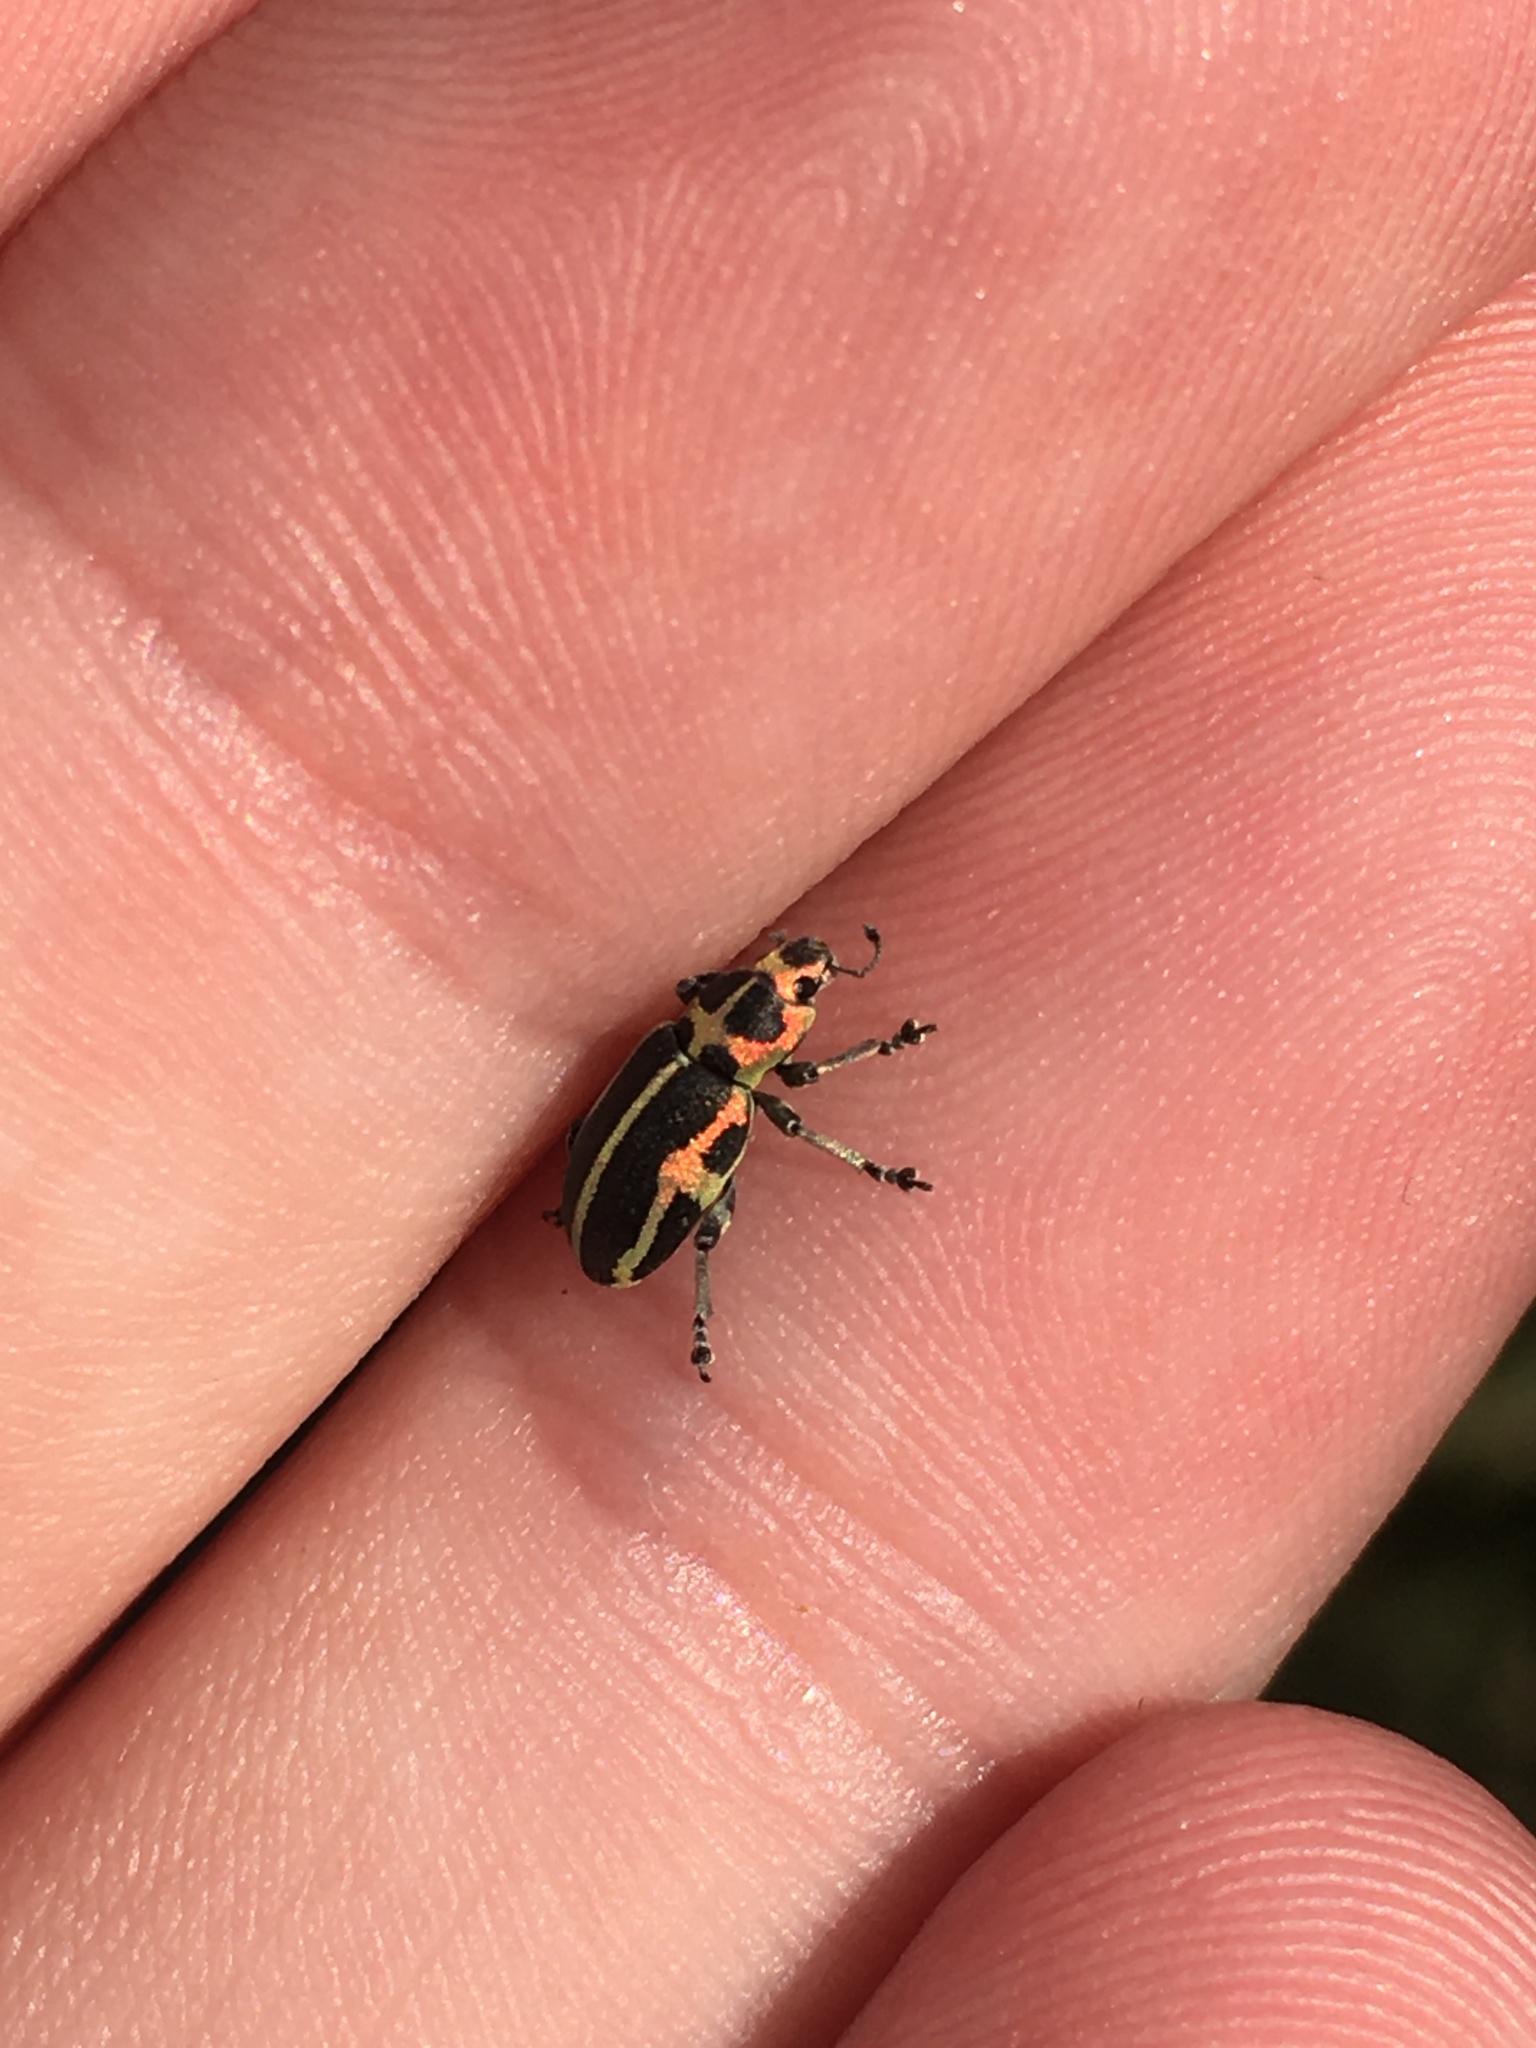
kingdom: Animalia
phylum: Arthropoda
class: Insecta
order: Coleoptera
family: Curculionidae
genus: Eudiagogus
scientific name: Eudiagogus pulcher
